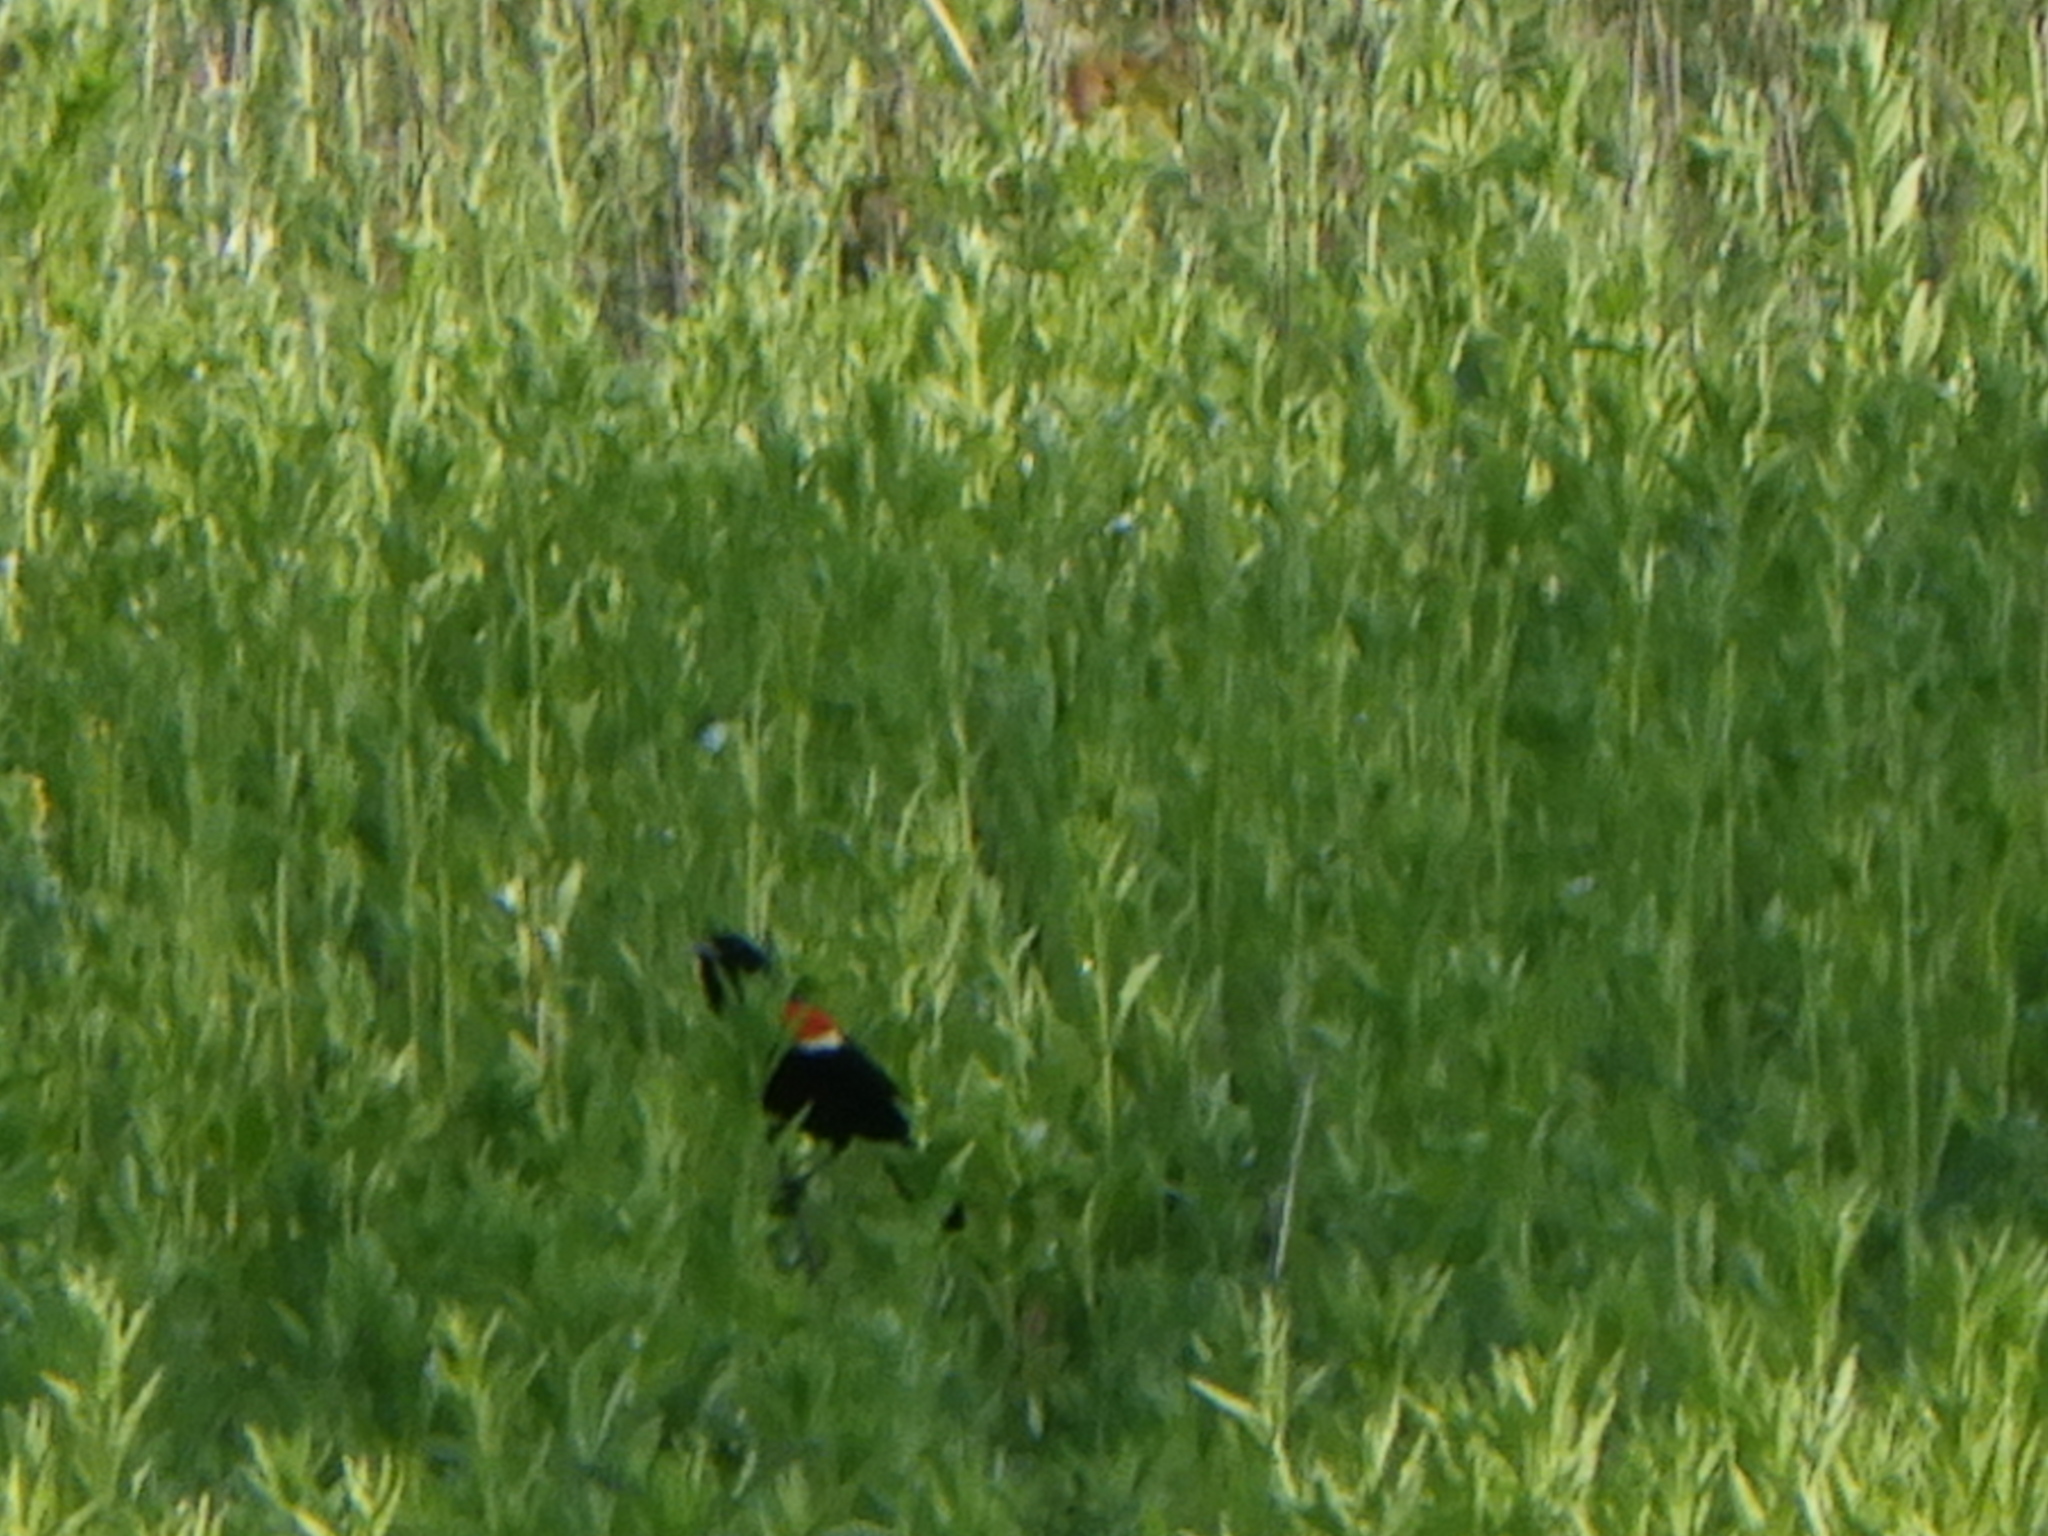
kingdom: Animalia
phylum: Chordata
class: Aves
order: Passeriformes
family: Icteridae
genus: Agelaius
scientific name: Agelaius phoeniceus
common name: Red-winged blackbird
